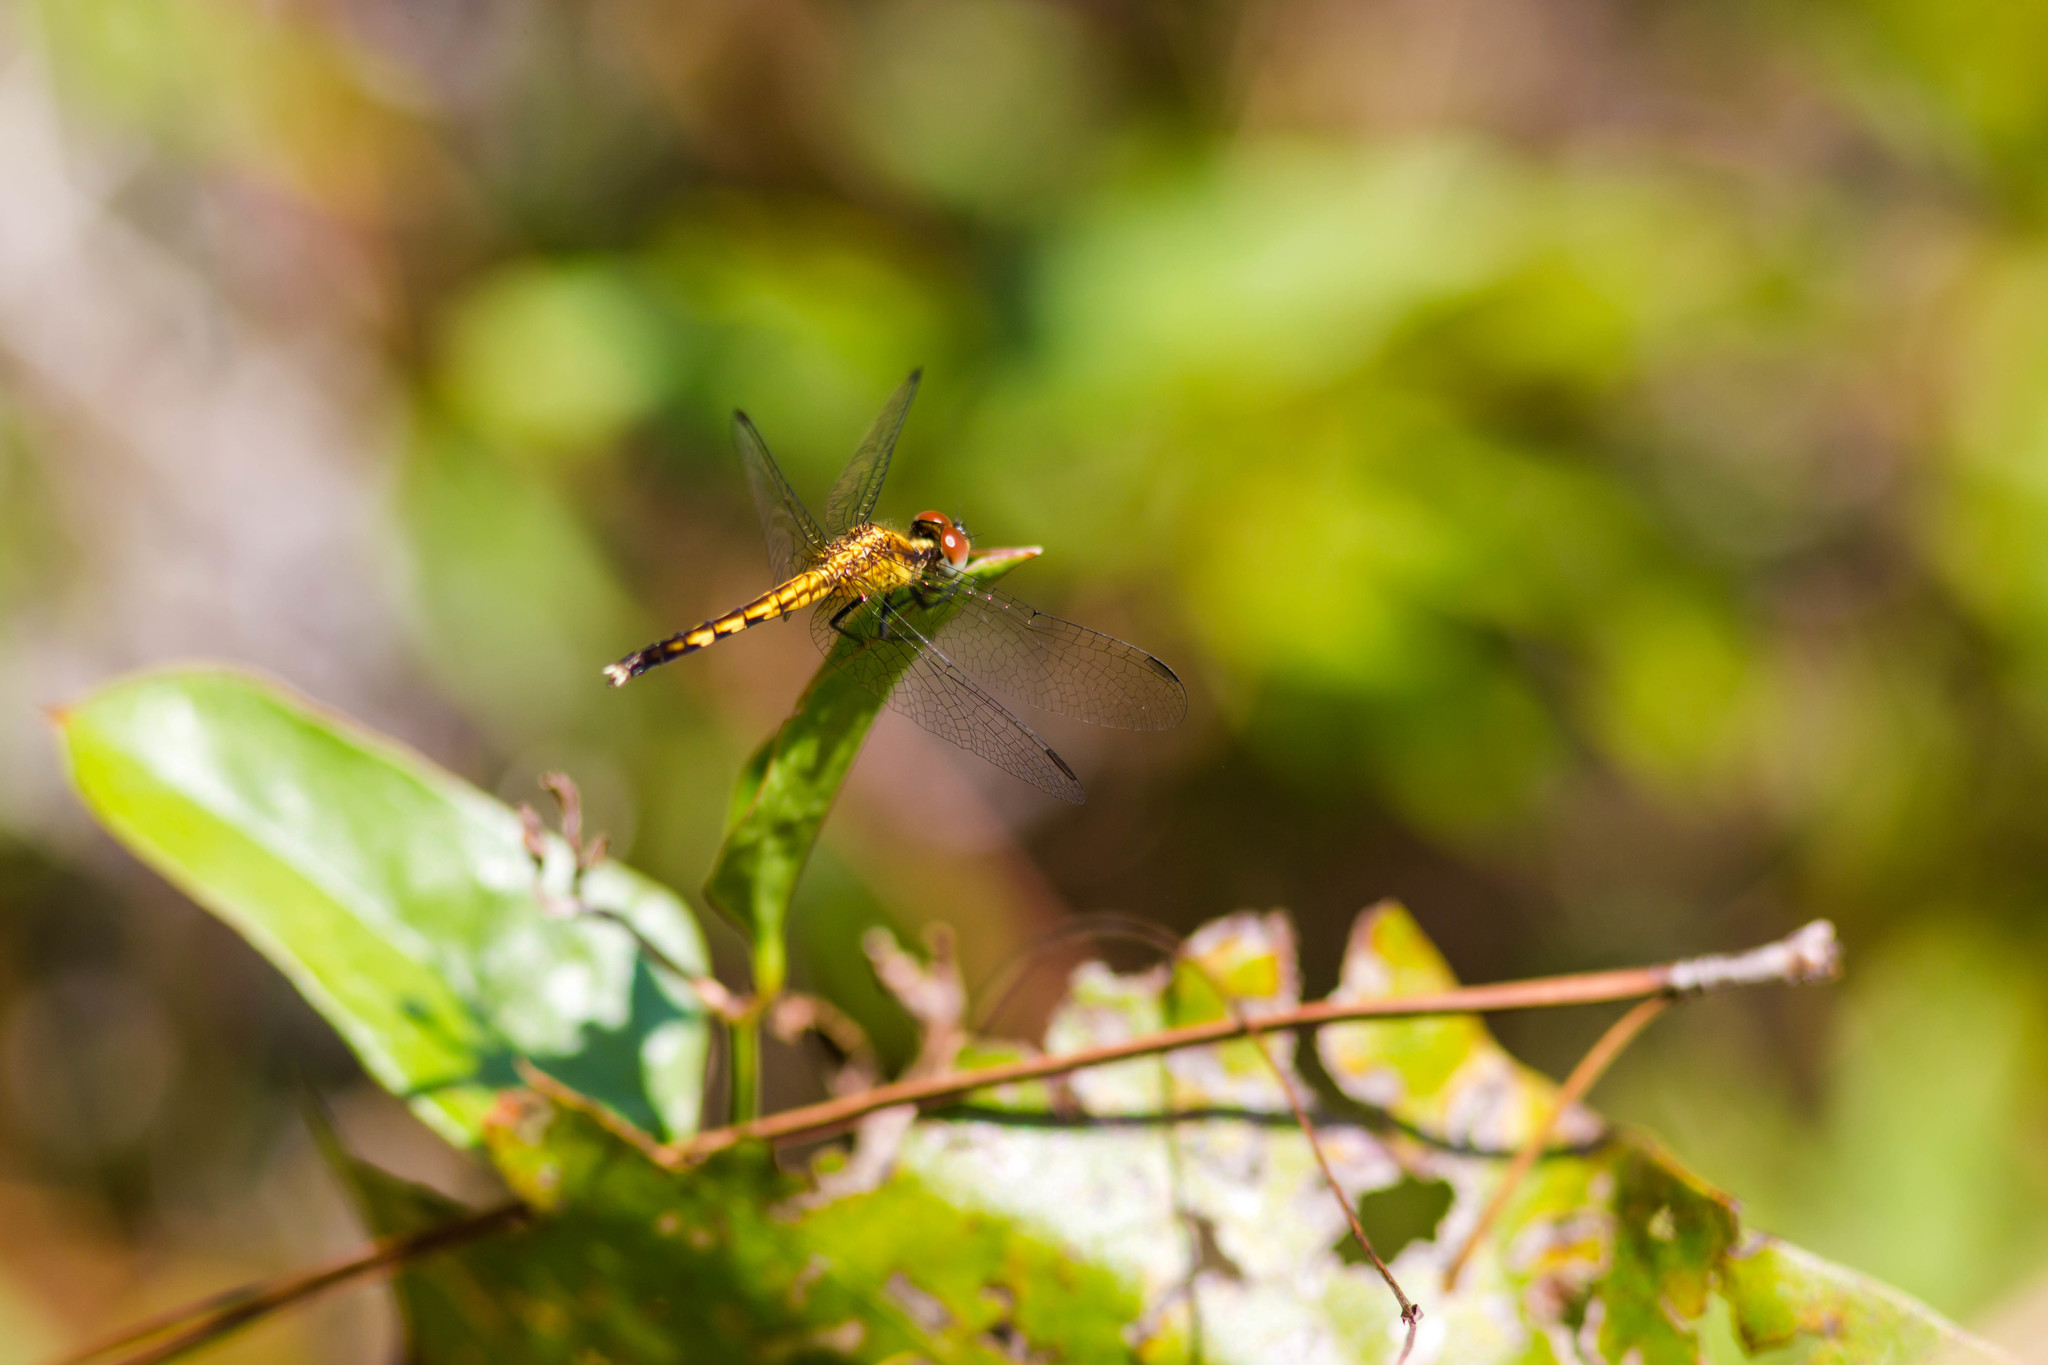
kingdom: Animalia
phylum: Arthropoda
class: Insecta
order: Odonata
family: Libellulidae
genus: Erythrodiplax
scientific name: Erythrodiplax minuscula
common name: Little blue dragonlet
